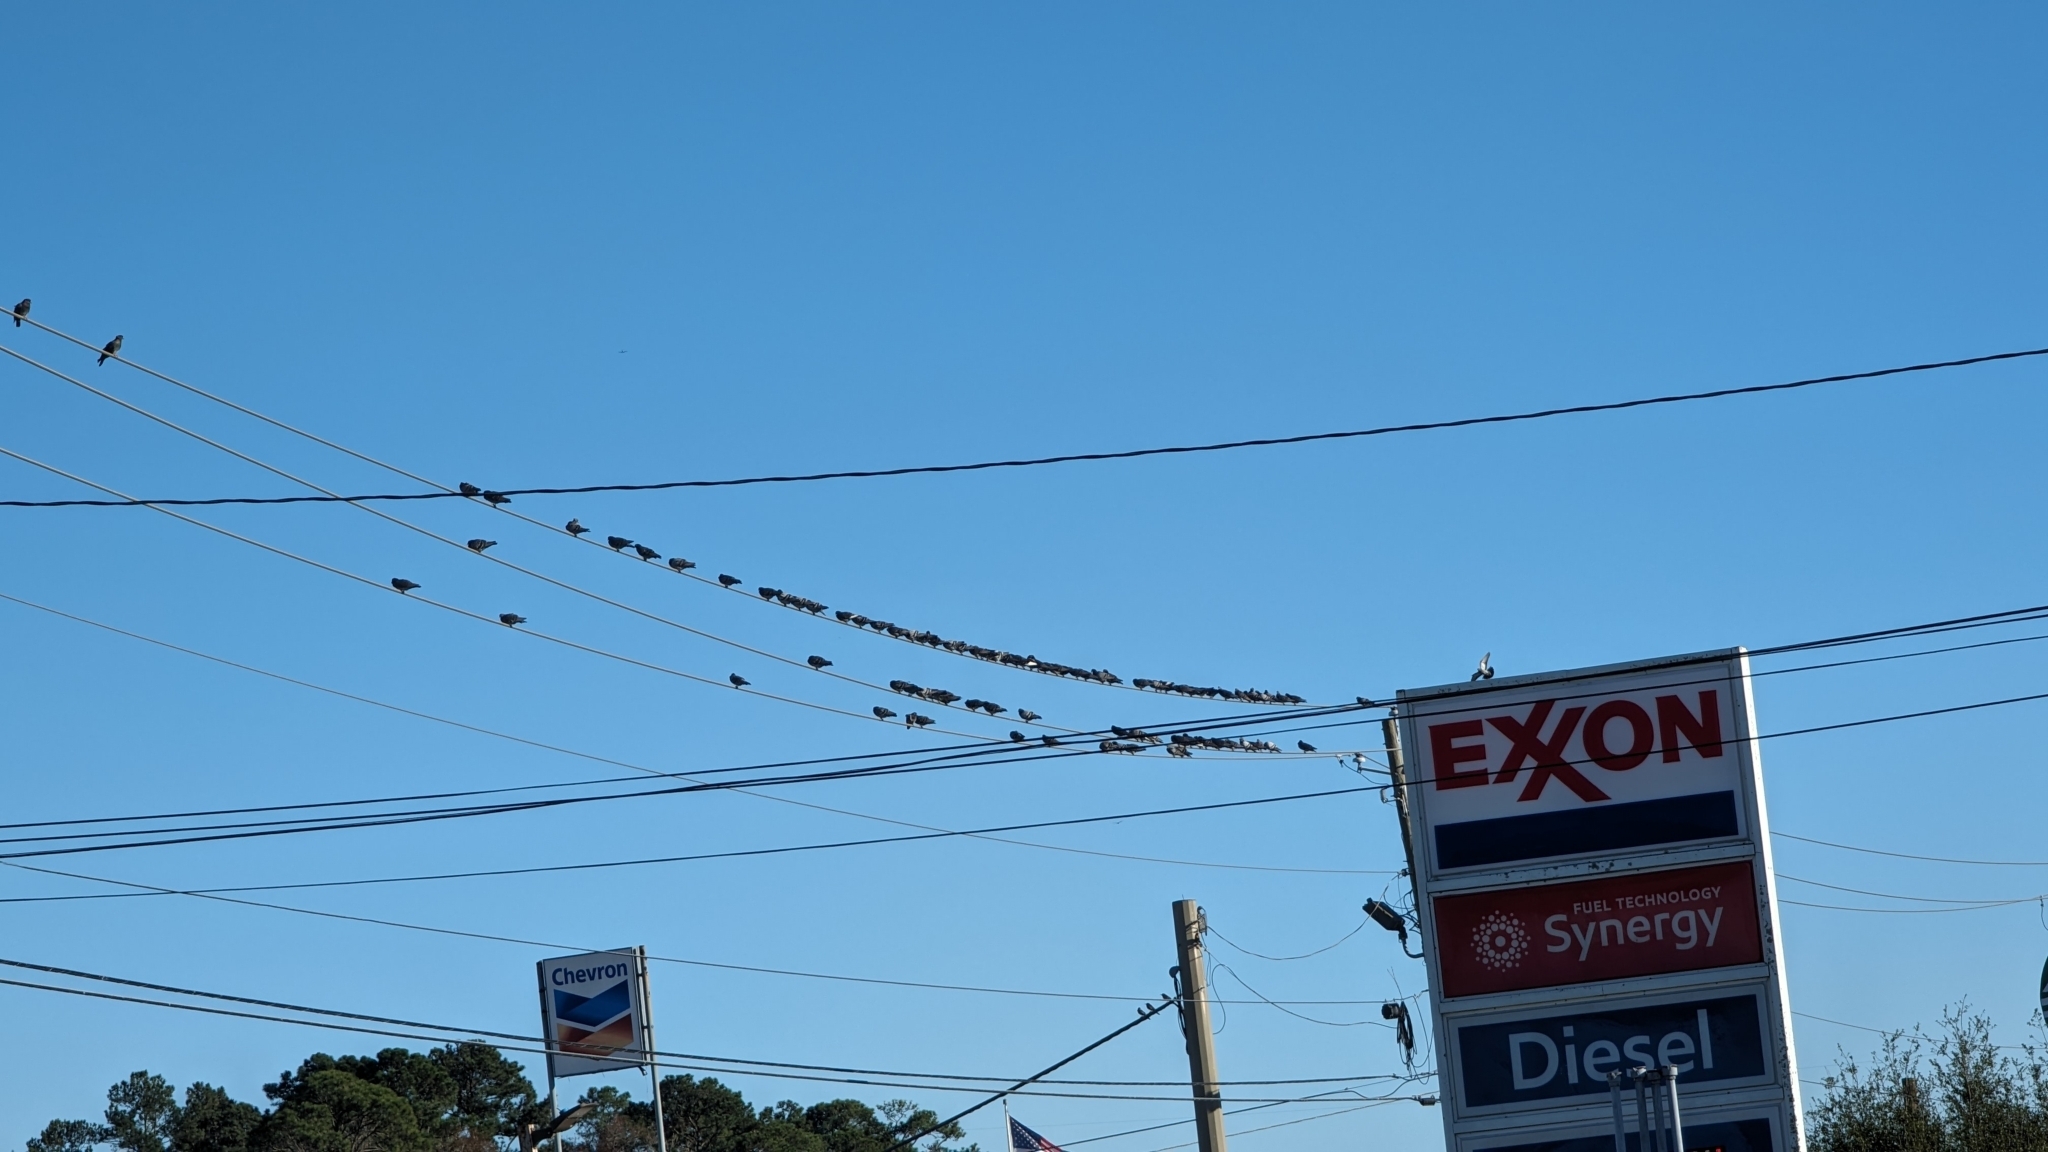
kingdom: Animalia
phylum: Chordata
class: Aves
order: Columbiformes
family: Columbidae
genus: Columba
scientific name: Columba livia
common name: Rock pigeon
